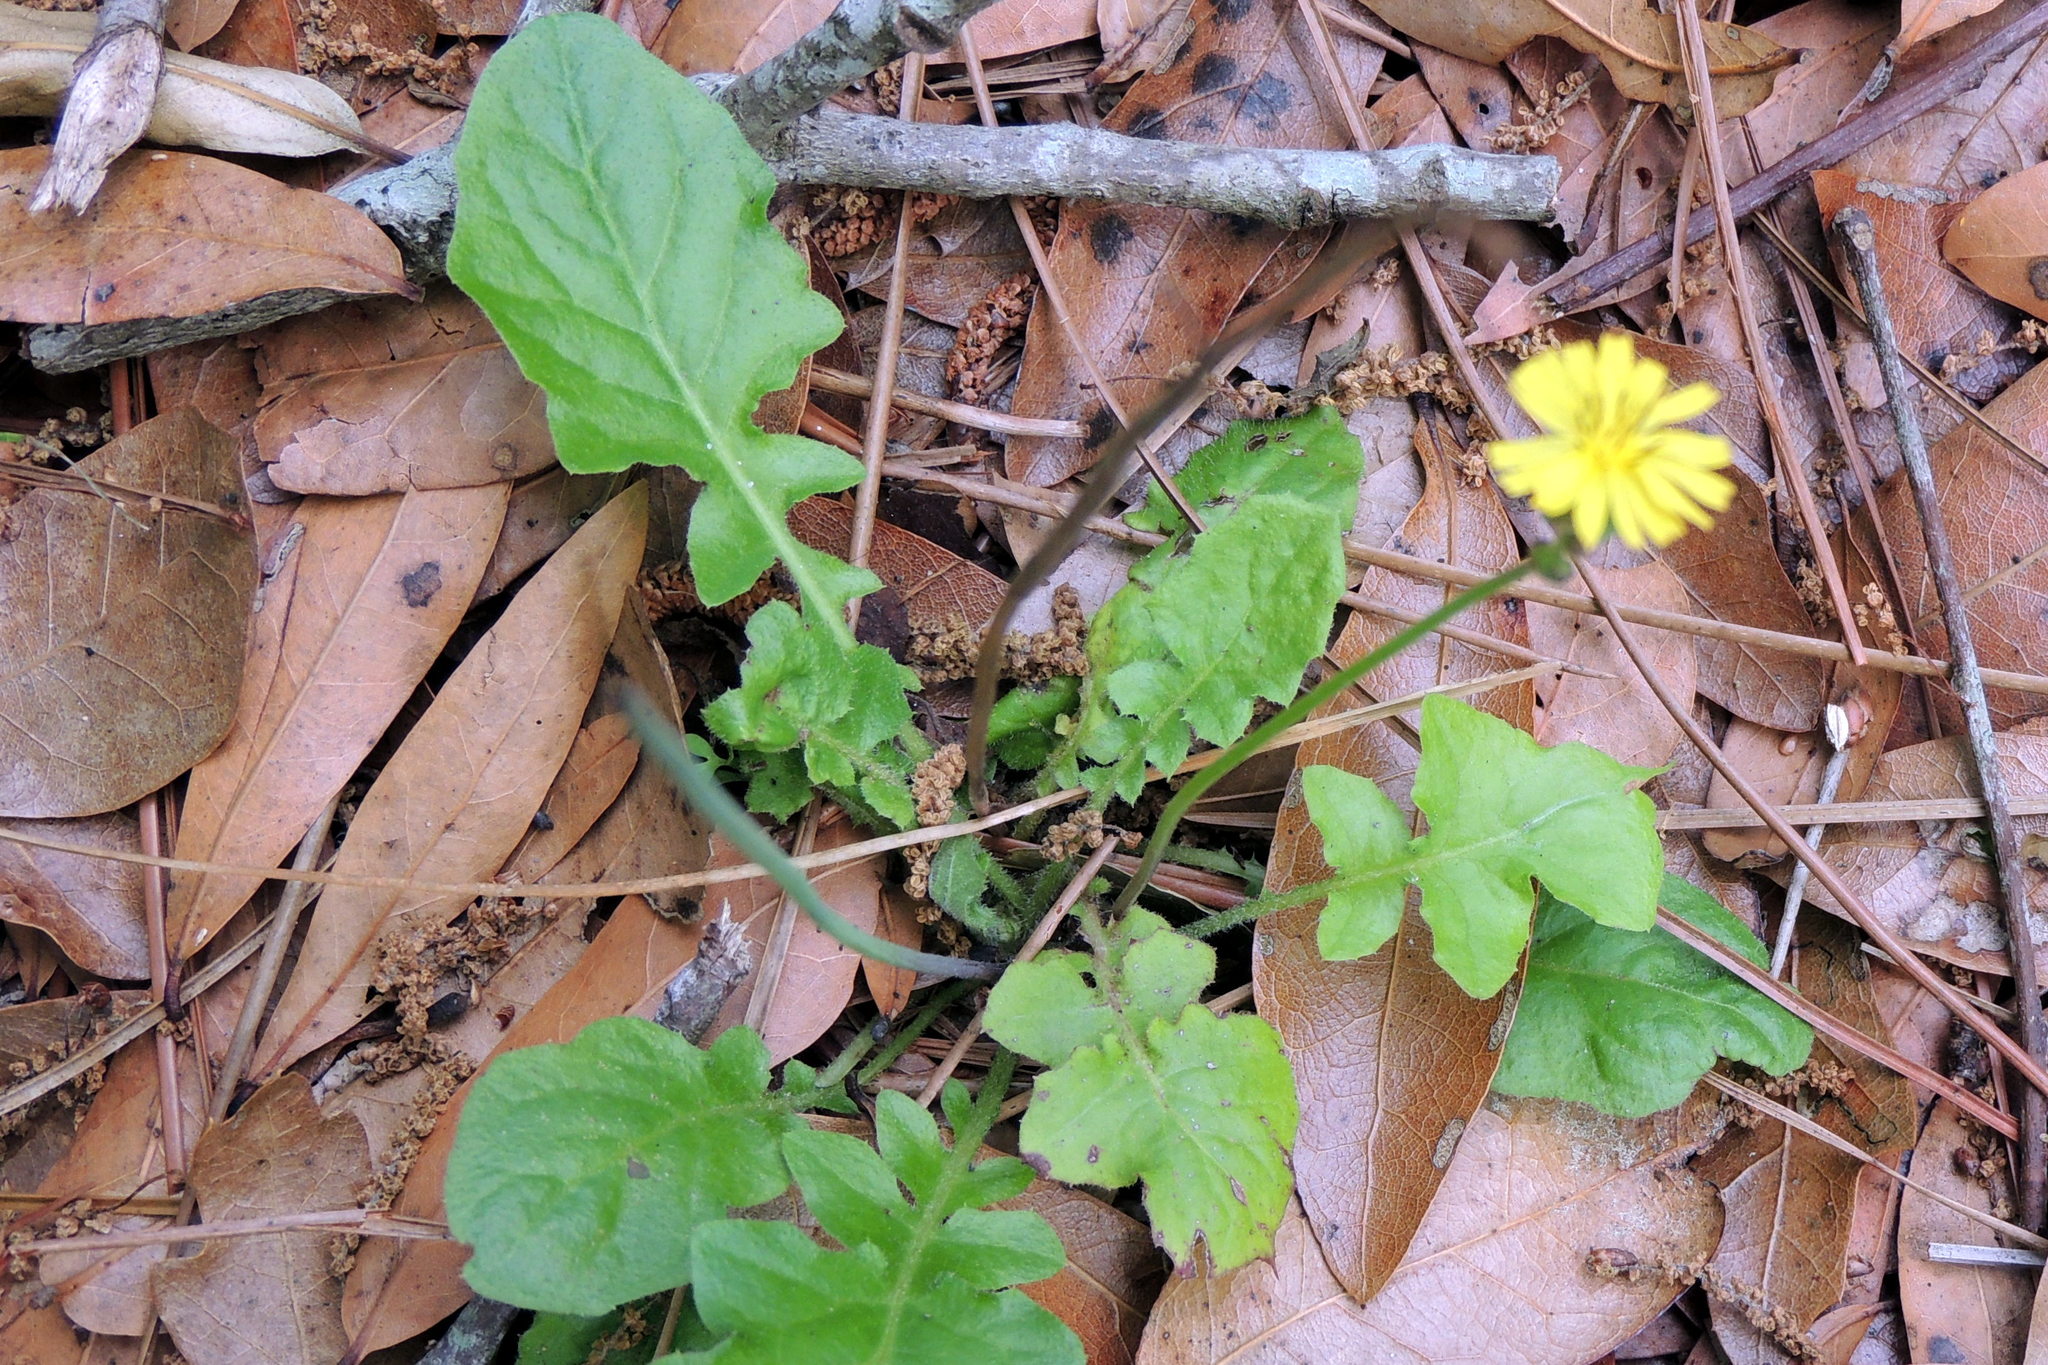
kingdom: Plantae
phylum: Tracheophyta
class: Magnoliopsida
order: Asterales
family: Asteraceae
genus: Youngia
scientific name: Youngia japonica
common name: Oriental false hawksbeard
